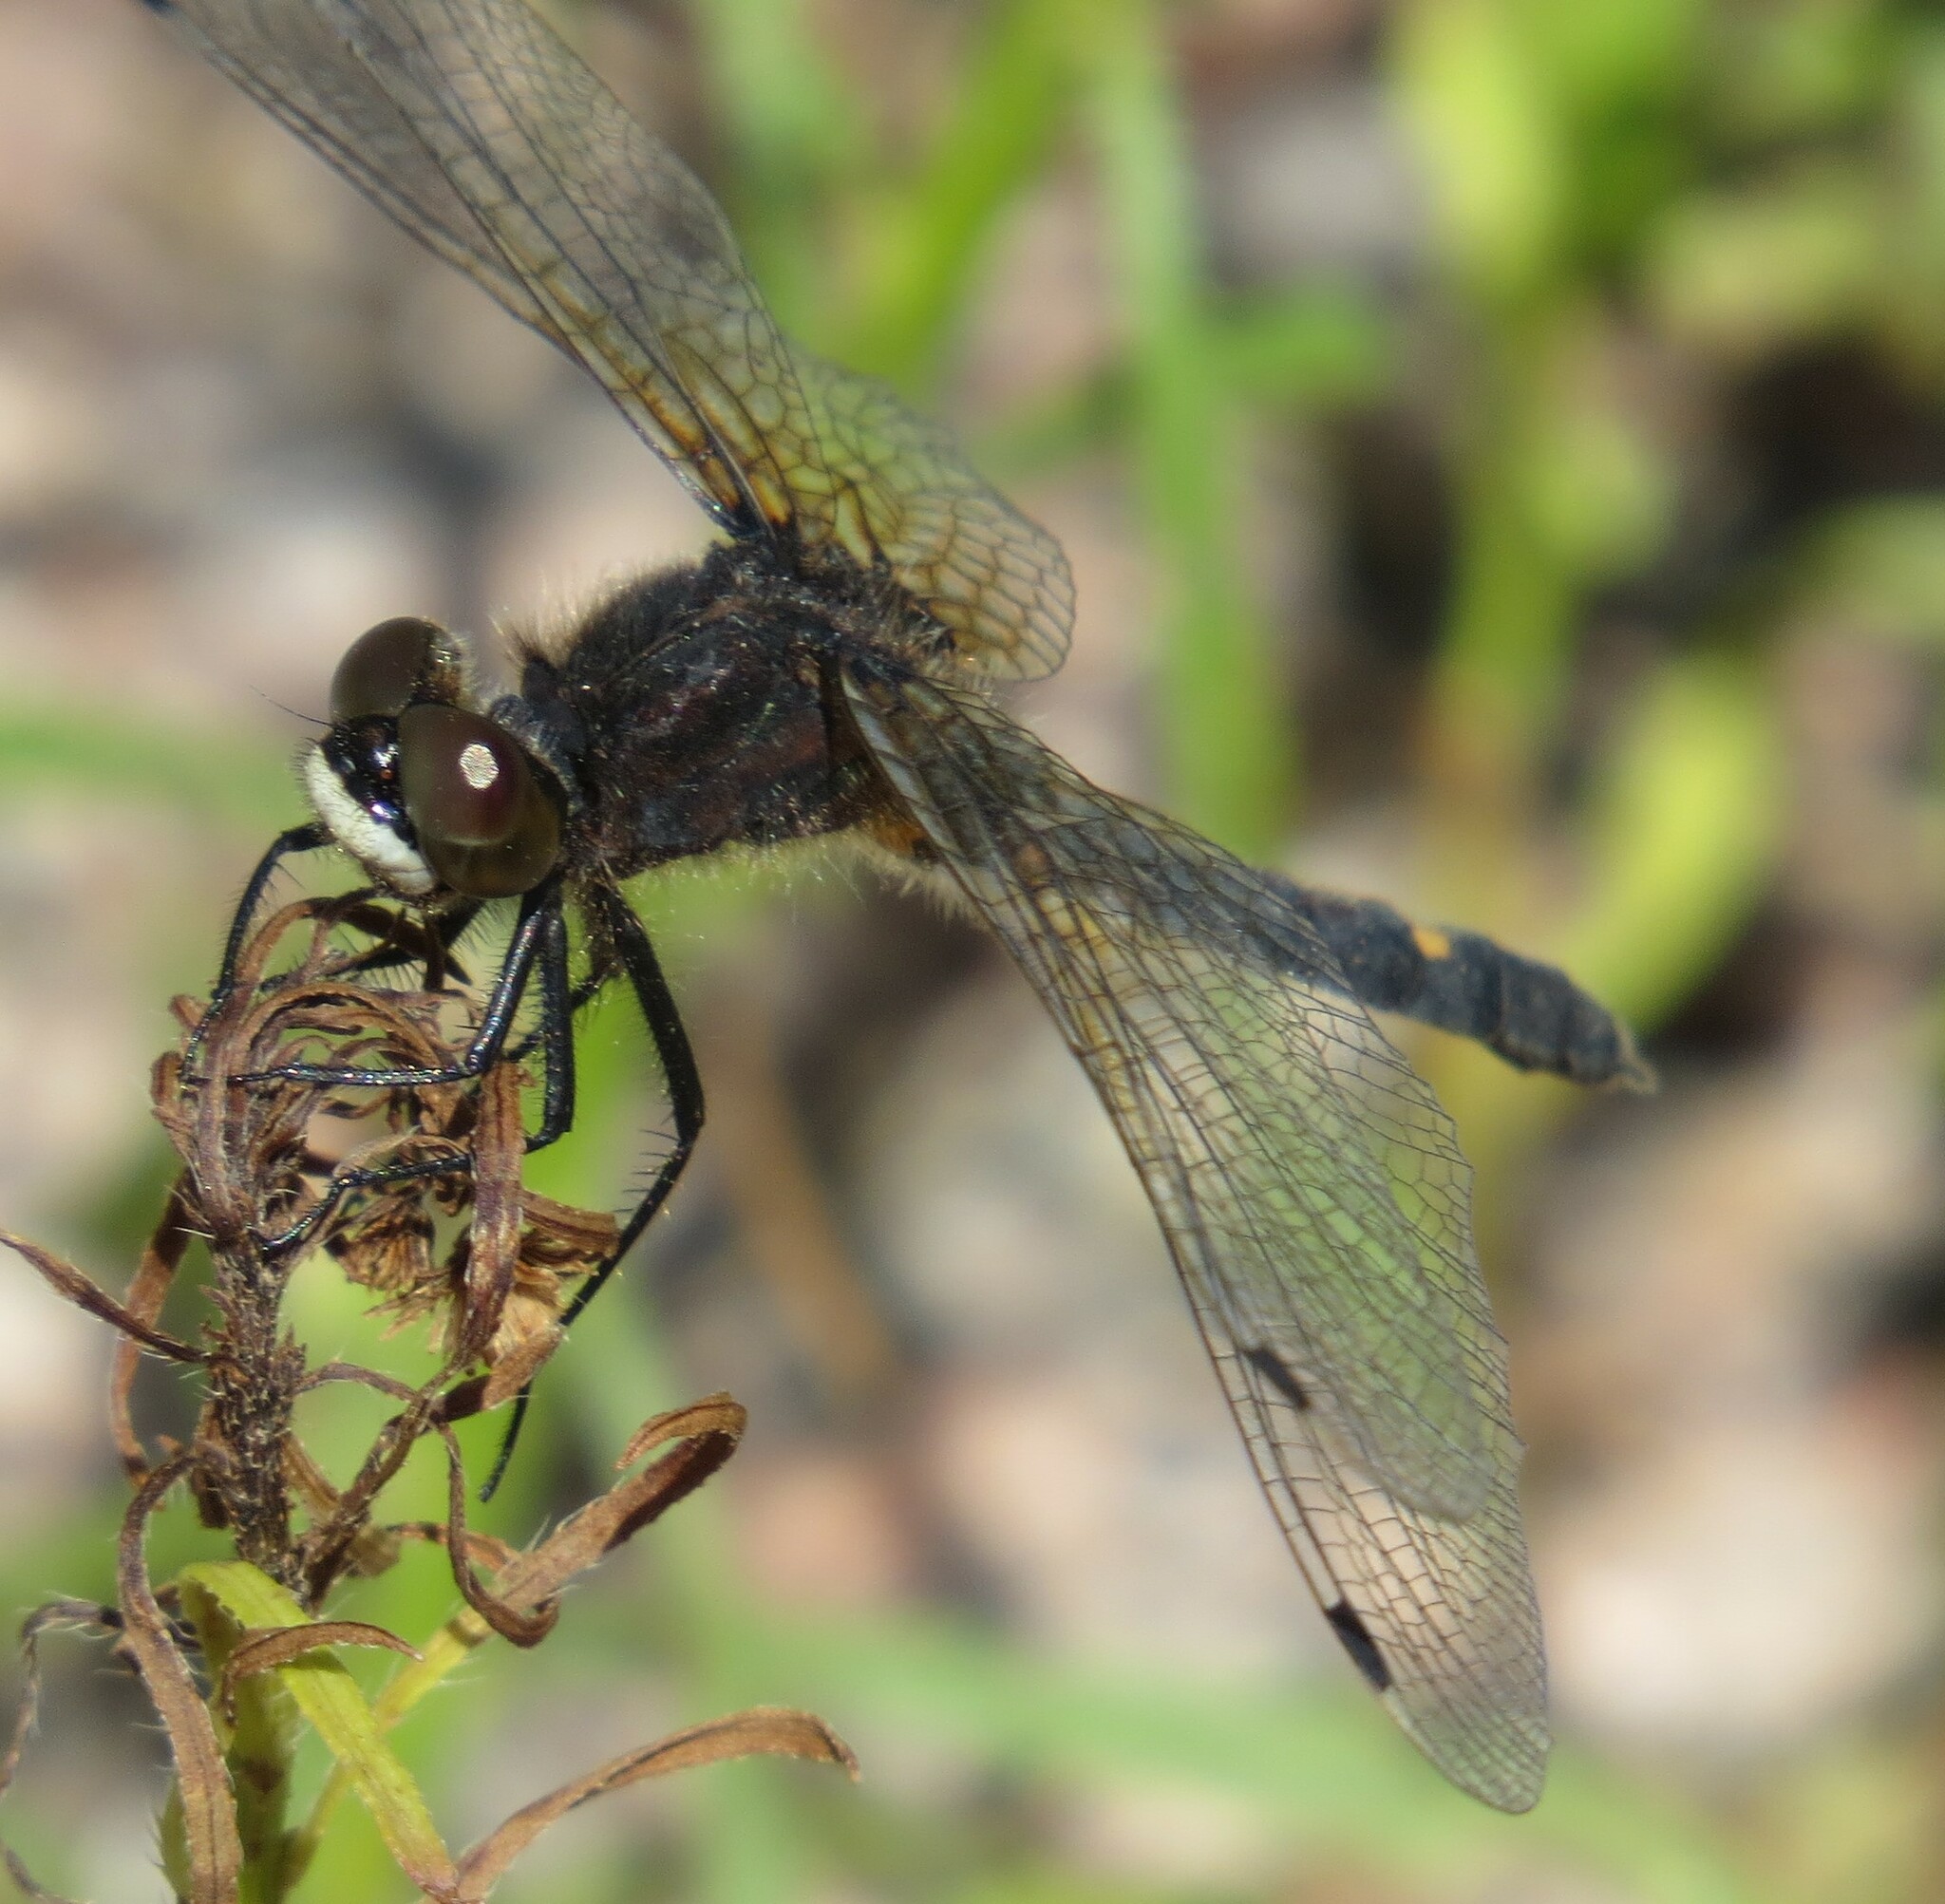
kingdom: Animalia
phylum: Arthropoda
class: Insecta
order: Odonata
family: Libellulidae
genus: Leucorrhinia
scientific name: Leucorrhinia intacta
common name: Dot-tailed whiteface
